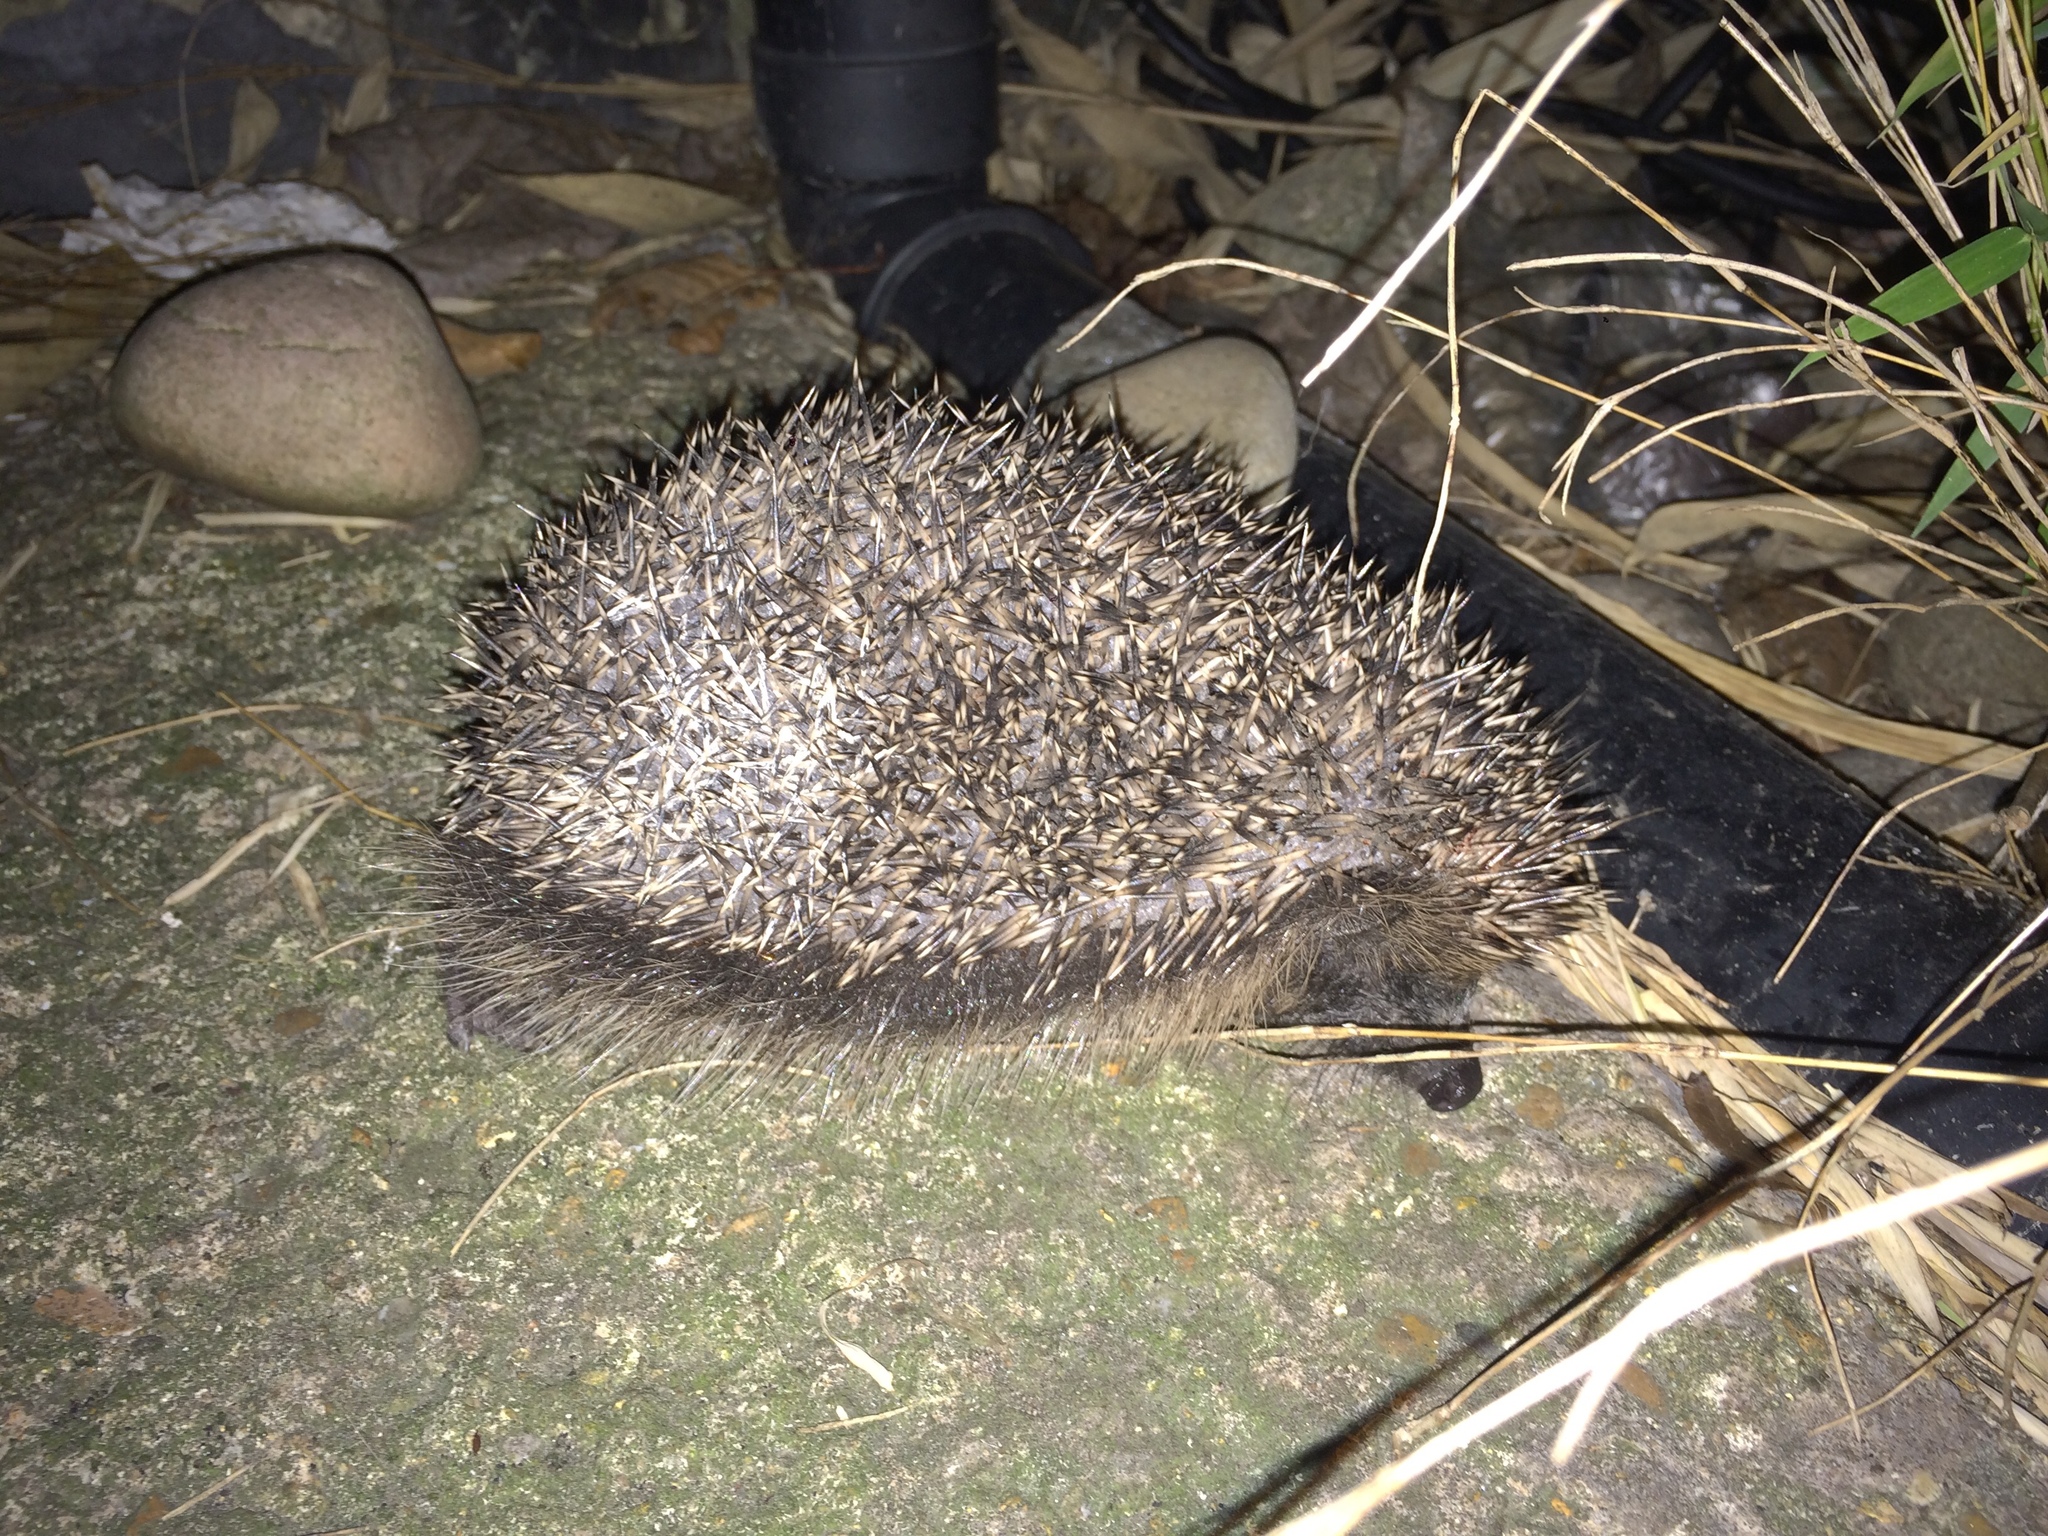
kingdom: Animalia
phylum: Chordata
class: Mammalia
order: Erinaceomorpha
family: Erinaceidae
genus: Erinaceus
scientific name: Erinaceus europaeus
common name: West european hedgehog
